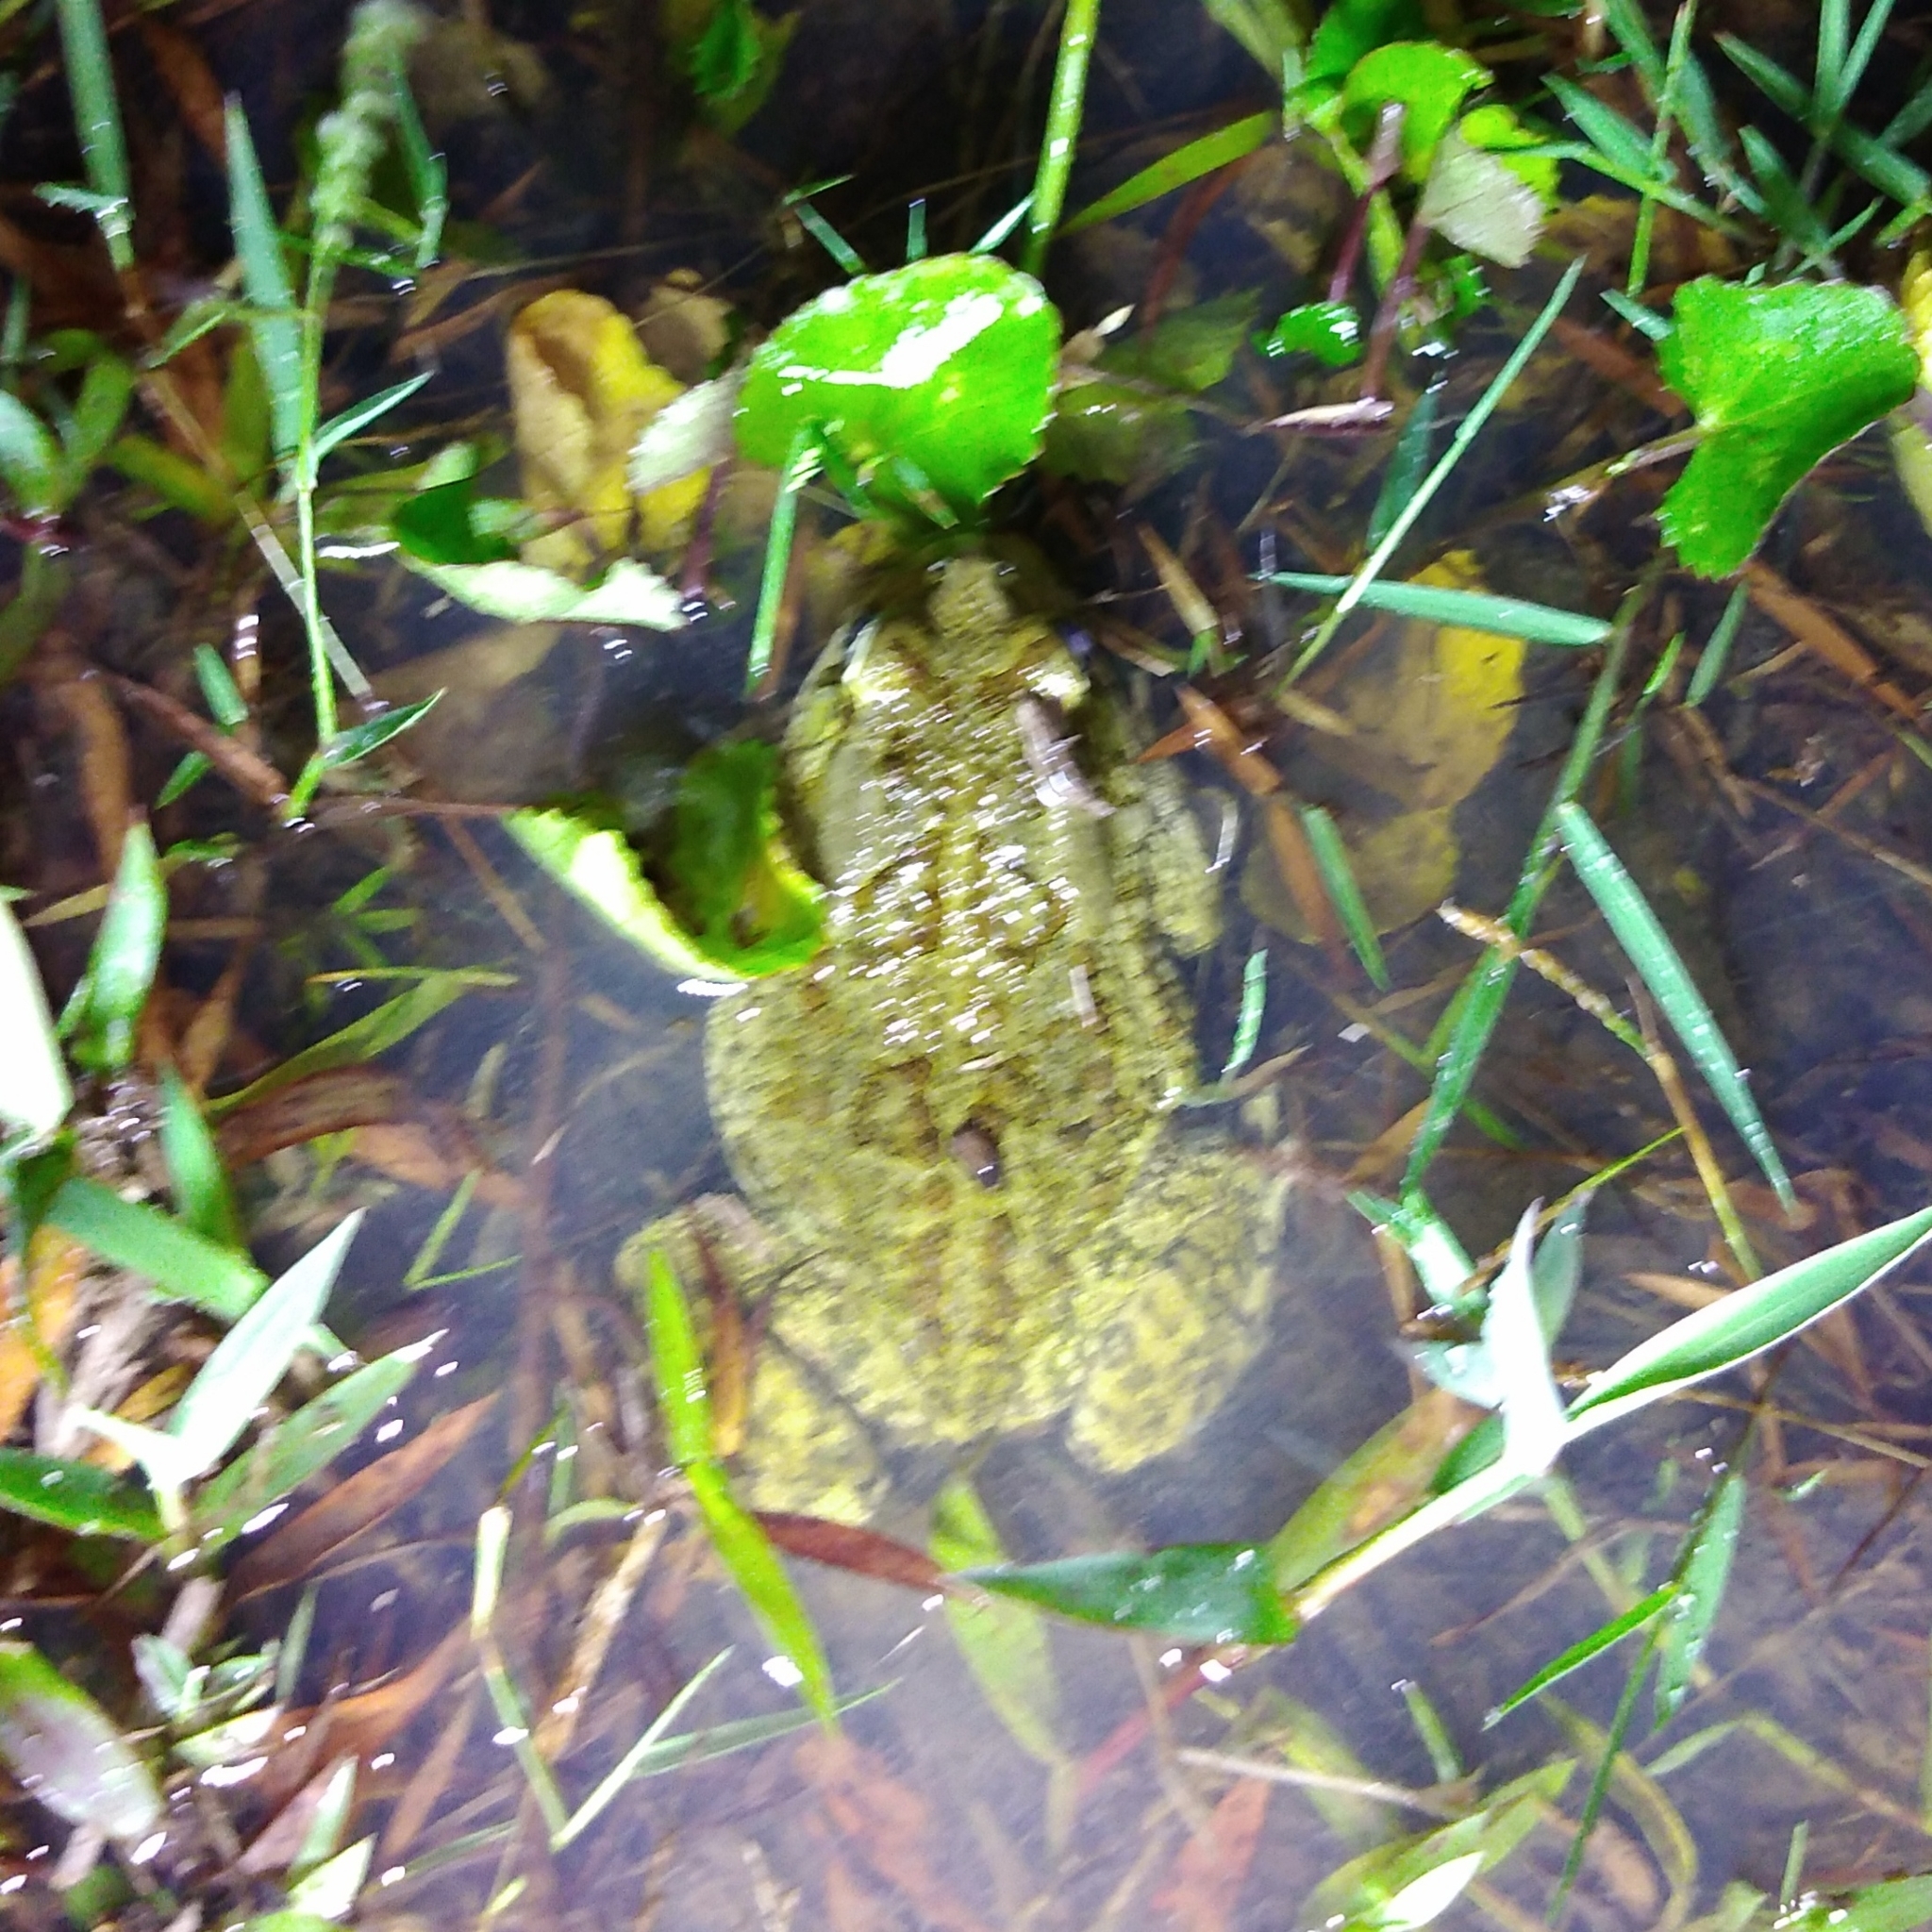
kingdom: Animalia
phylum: Chordata
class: Amphibia
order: Anura
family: Bufonidae
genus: Sclerophrys
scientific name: Sclerophrys garmani
